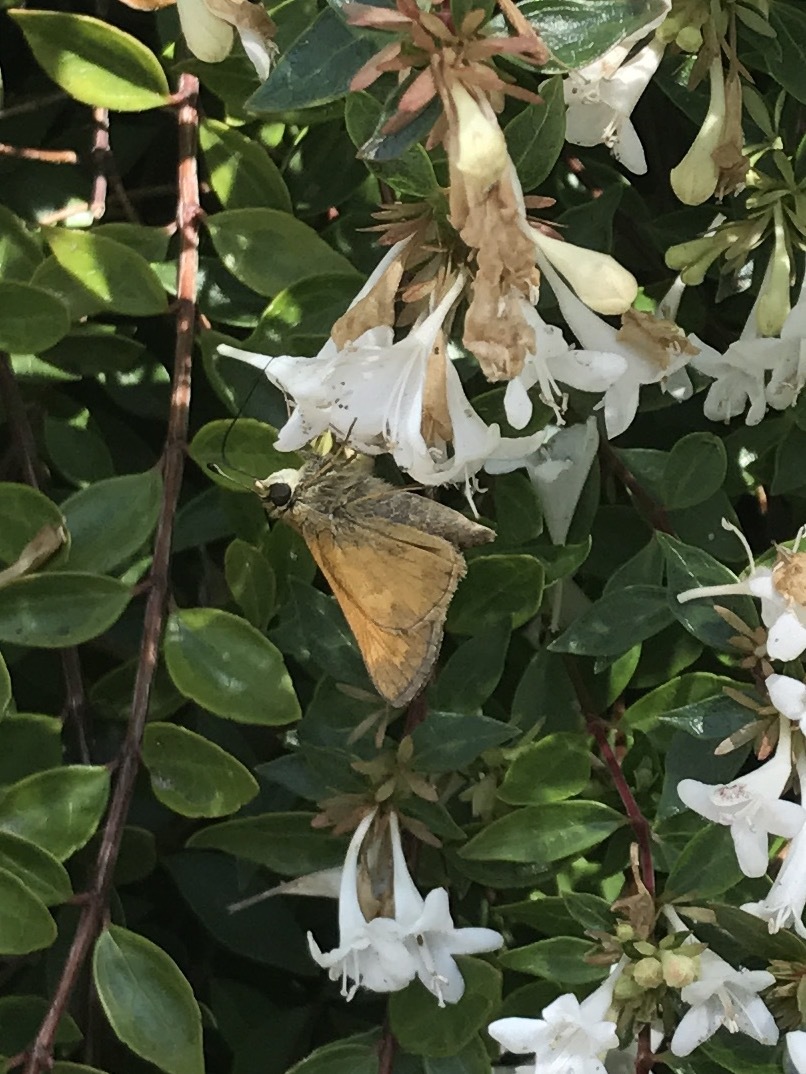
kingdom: Animalia
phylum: Arthropoda
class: Insecta
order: Lepidoptera
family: Hesperiidae
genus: Atalopedes
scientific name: Atalopedes
